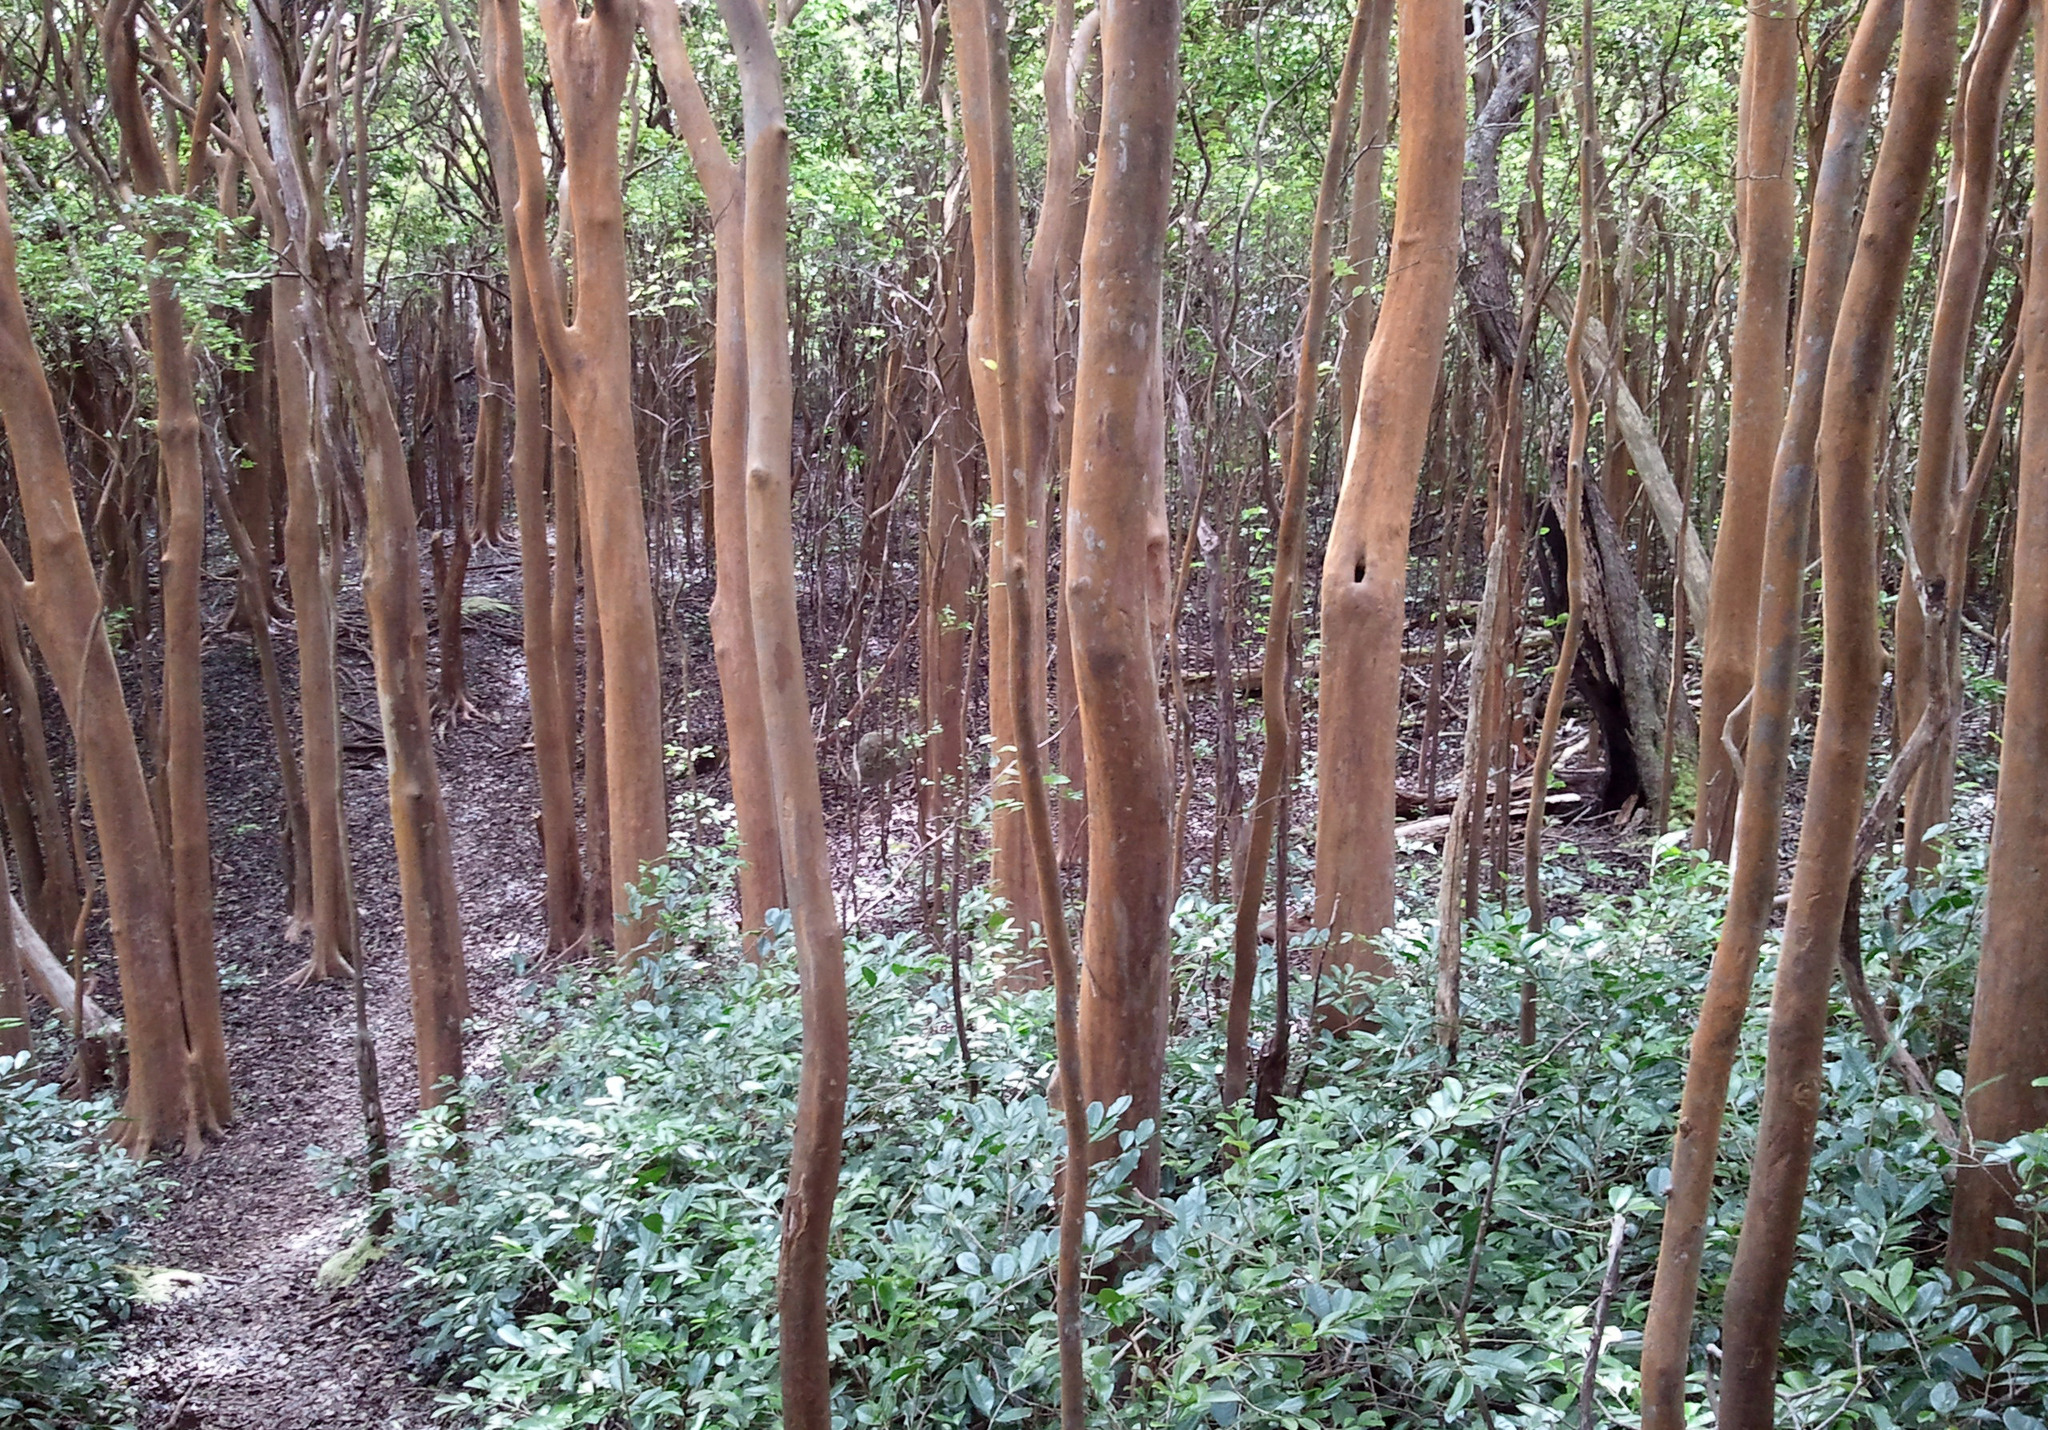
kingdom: Plantae
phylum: Tracheophyta
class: Magnoliopsida
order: Myrtales
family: Myrtaceae
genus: Psidium
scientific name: Psidium cattleianum
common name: Strawberry guava
